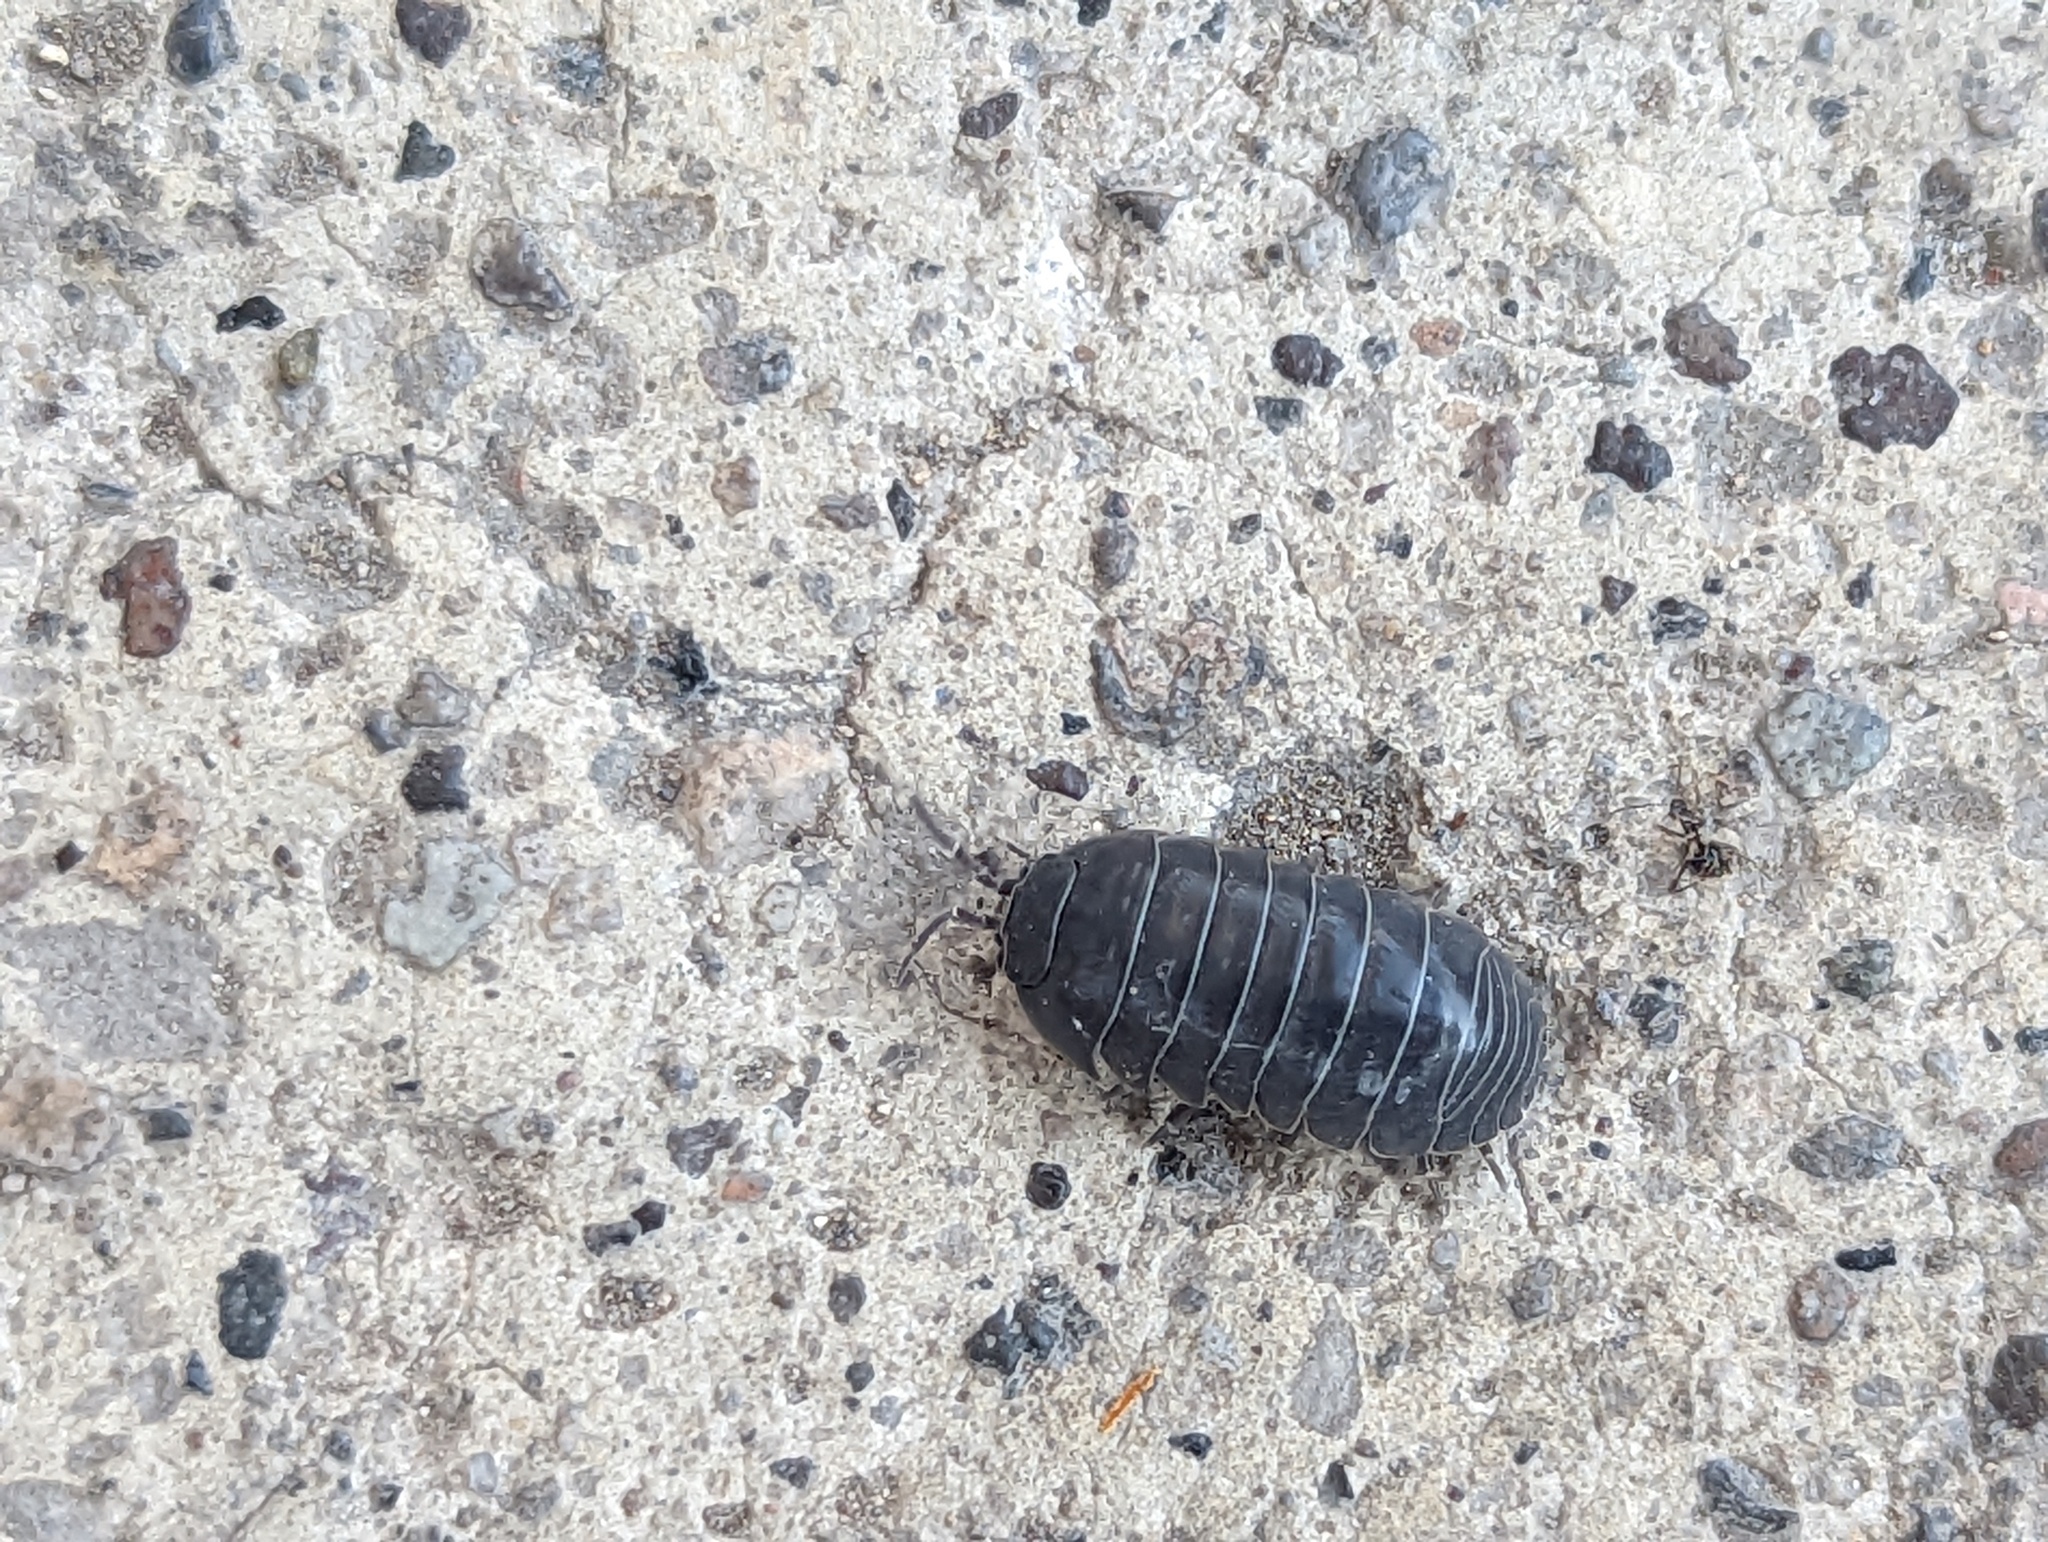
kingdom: Animalia
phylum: Arthropoda
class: Malacostraca
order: Isopoda
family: Armadillidiidae
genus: Armadillidium
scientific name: Armadillidium vulgare
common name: Common pill woodlouse
